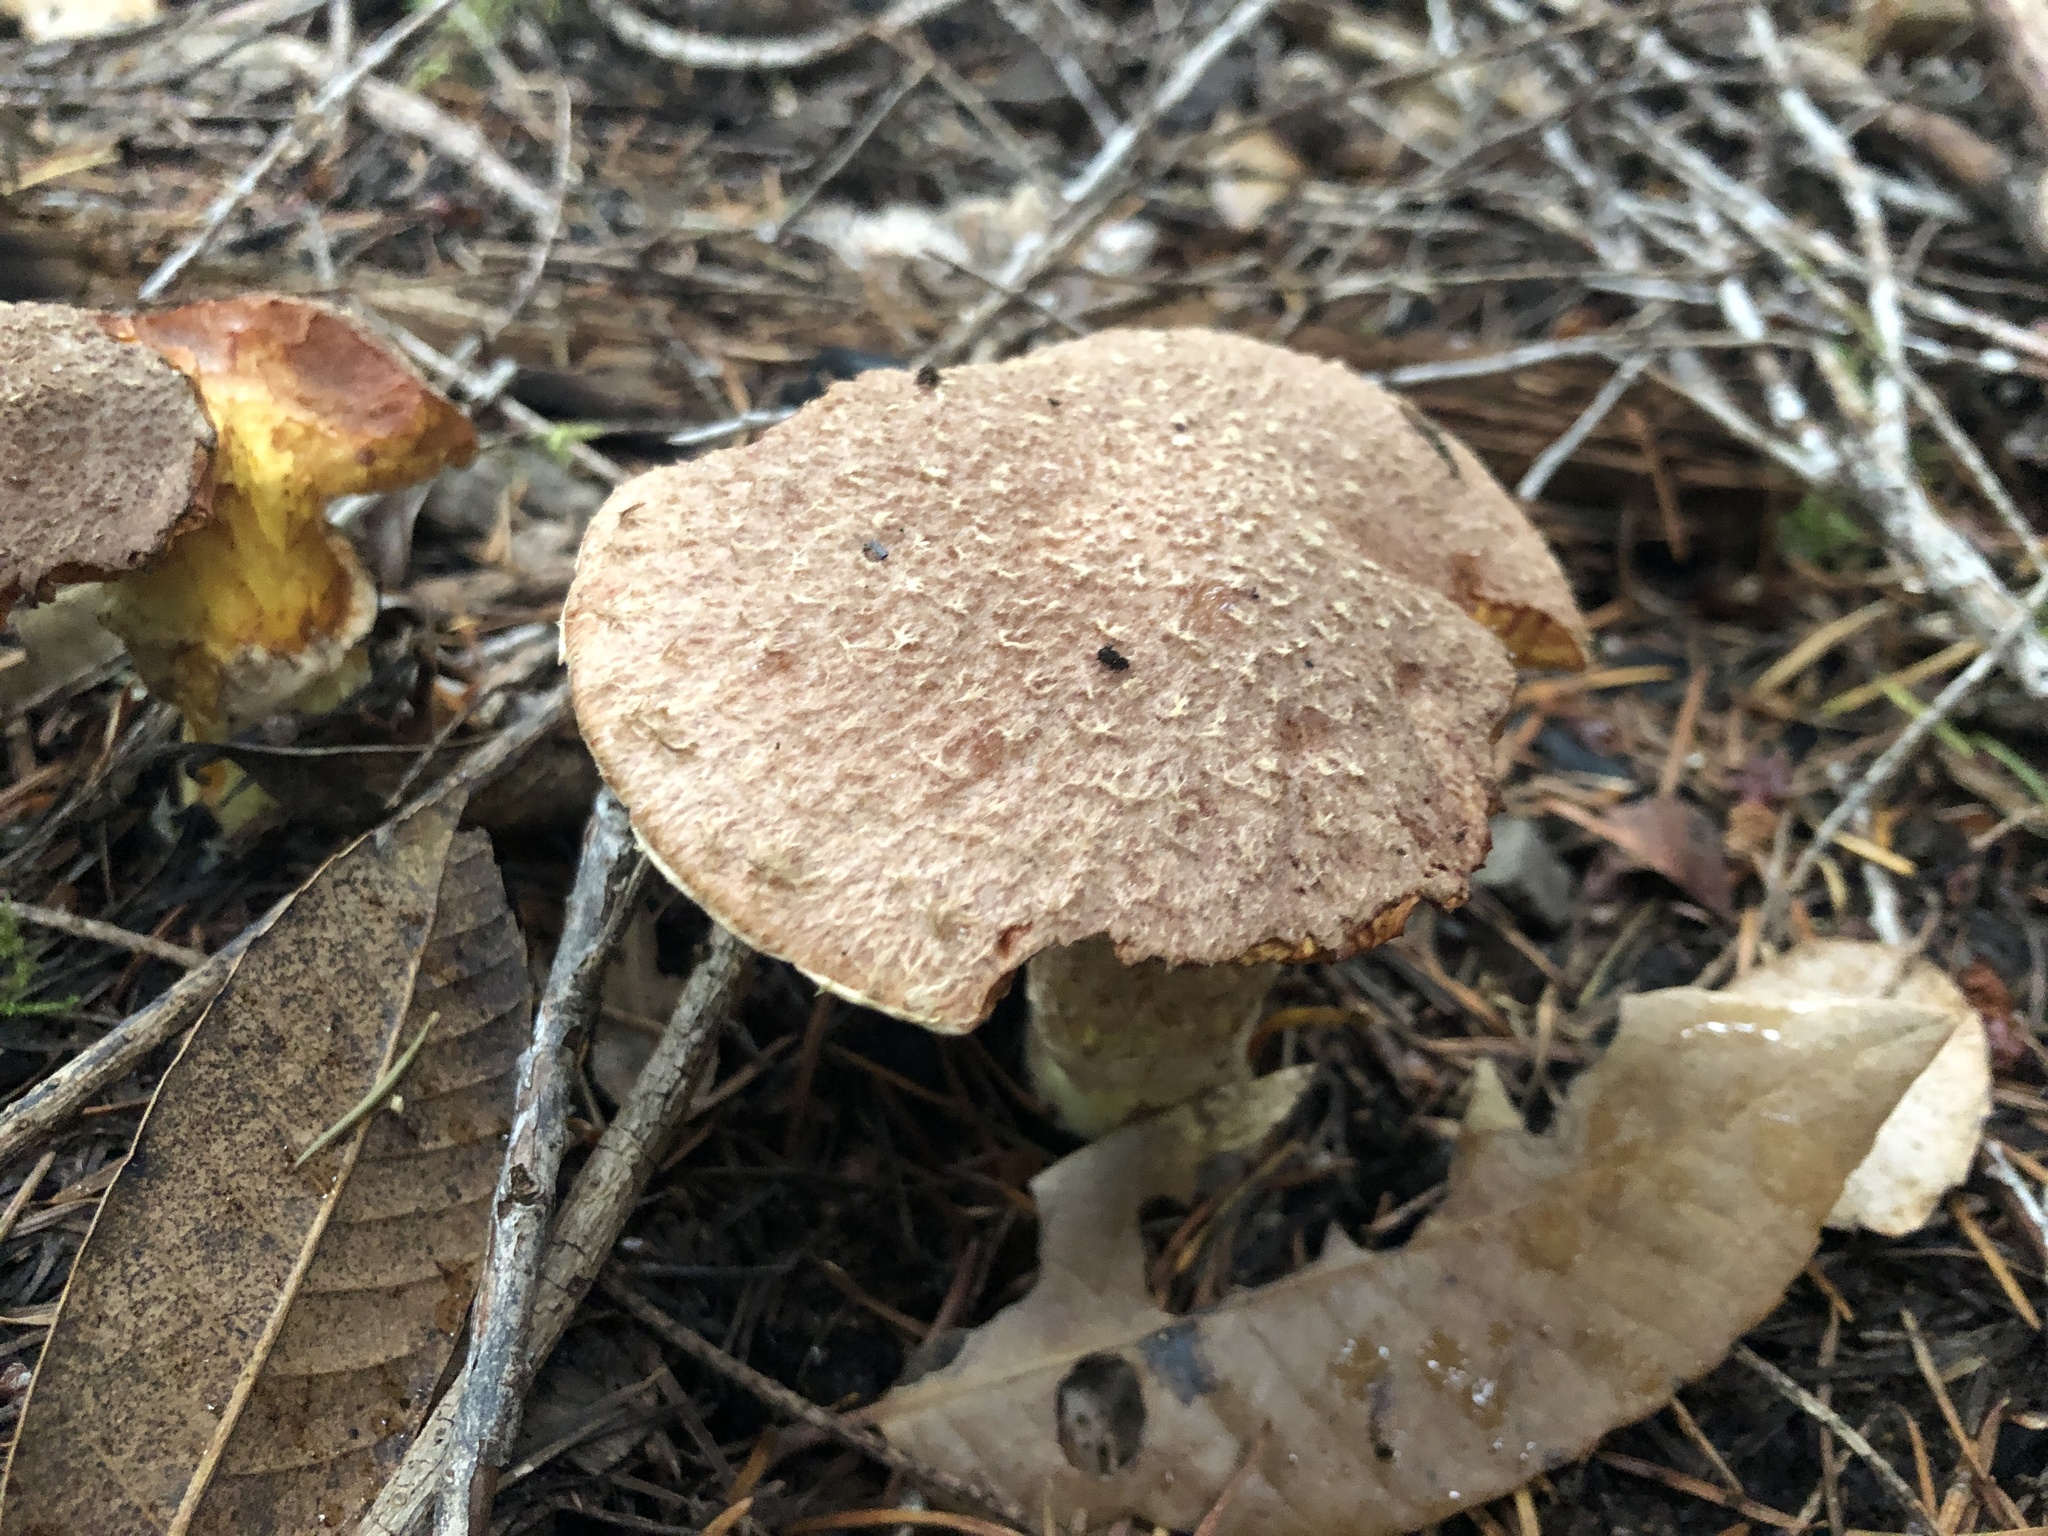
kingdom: Fungi
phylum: Basidiomycota
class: Agaricomycetes
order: Boletales
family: Suillaceae
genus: Suillus
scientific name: Suillus lakei
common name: Western painted suillus
